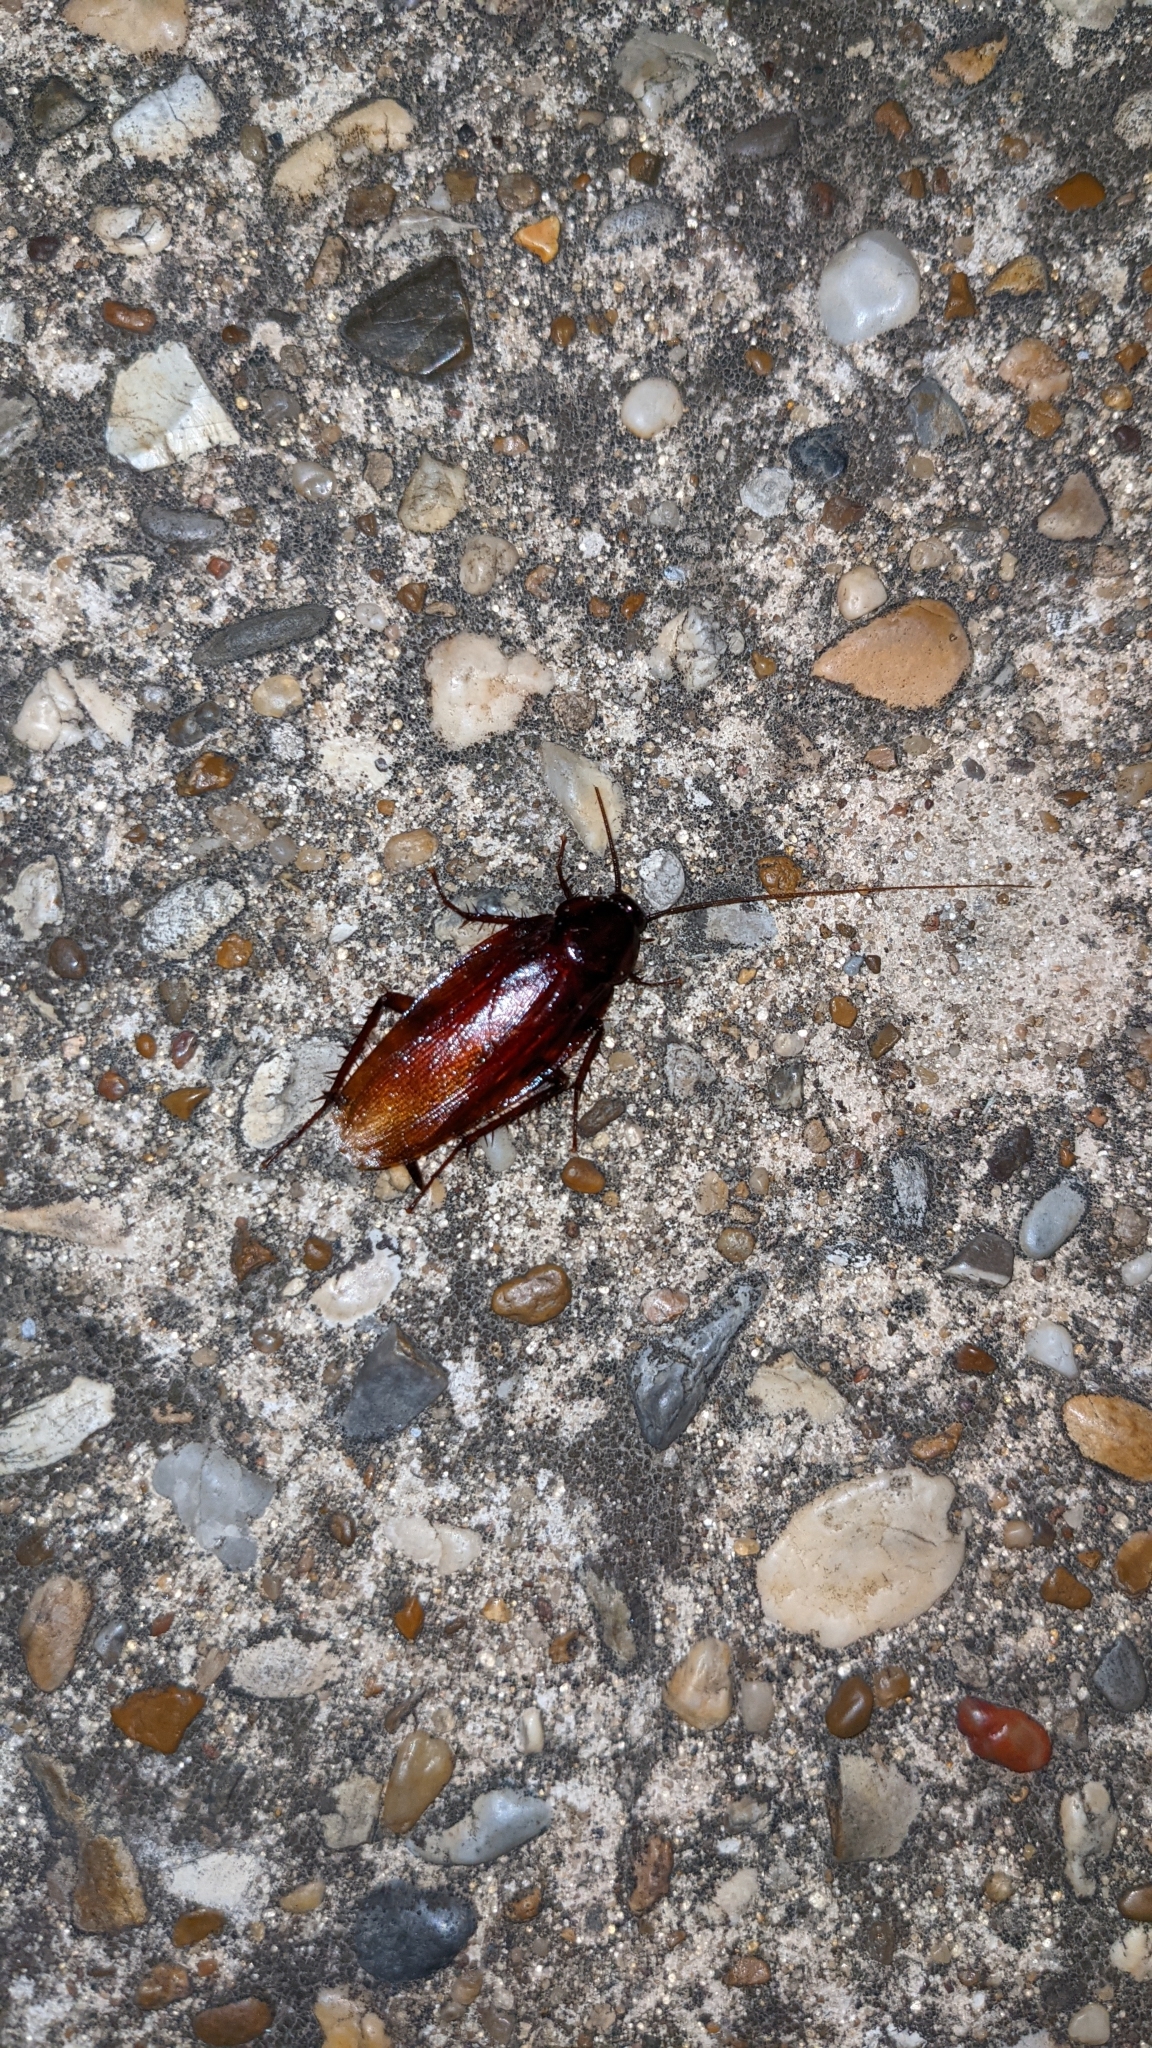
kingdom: Animalia
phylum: Arthropoda
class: Insecta
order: Blattodea
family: Blattidae
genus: Periplaneta
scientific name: Periplaneta fuliginosa
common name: Smokeybrown cockroad
